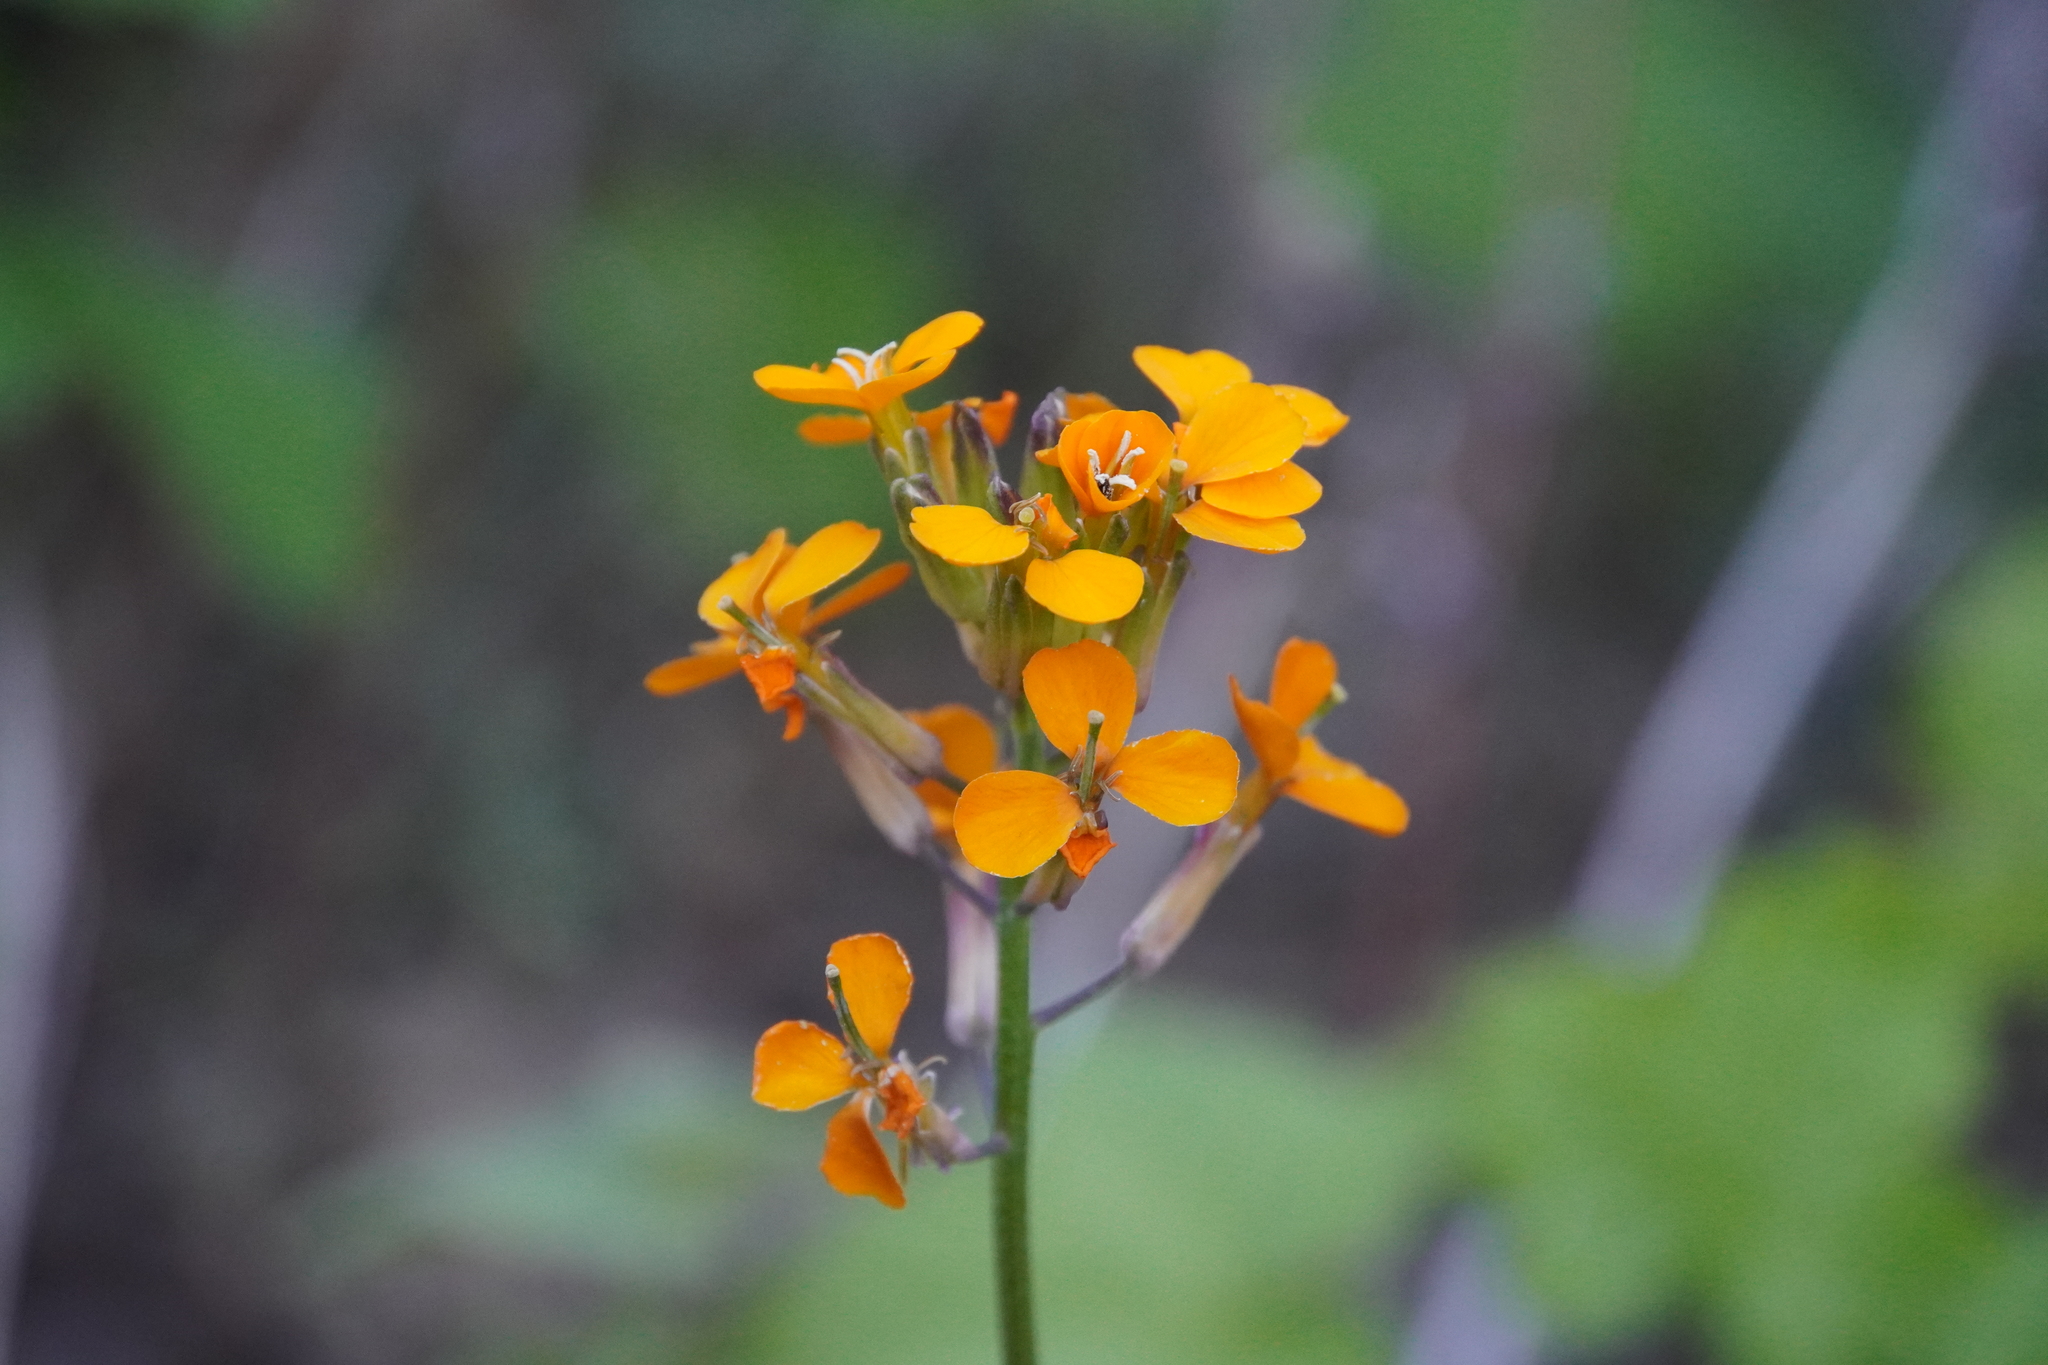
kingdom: Plantae
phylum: Tracheophyta
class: Magnoliopsida
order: Brassicales
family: Brassicaceae
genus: Erysimum
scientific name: Erysimum capitatum
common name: Western wallflower
